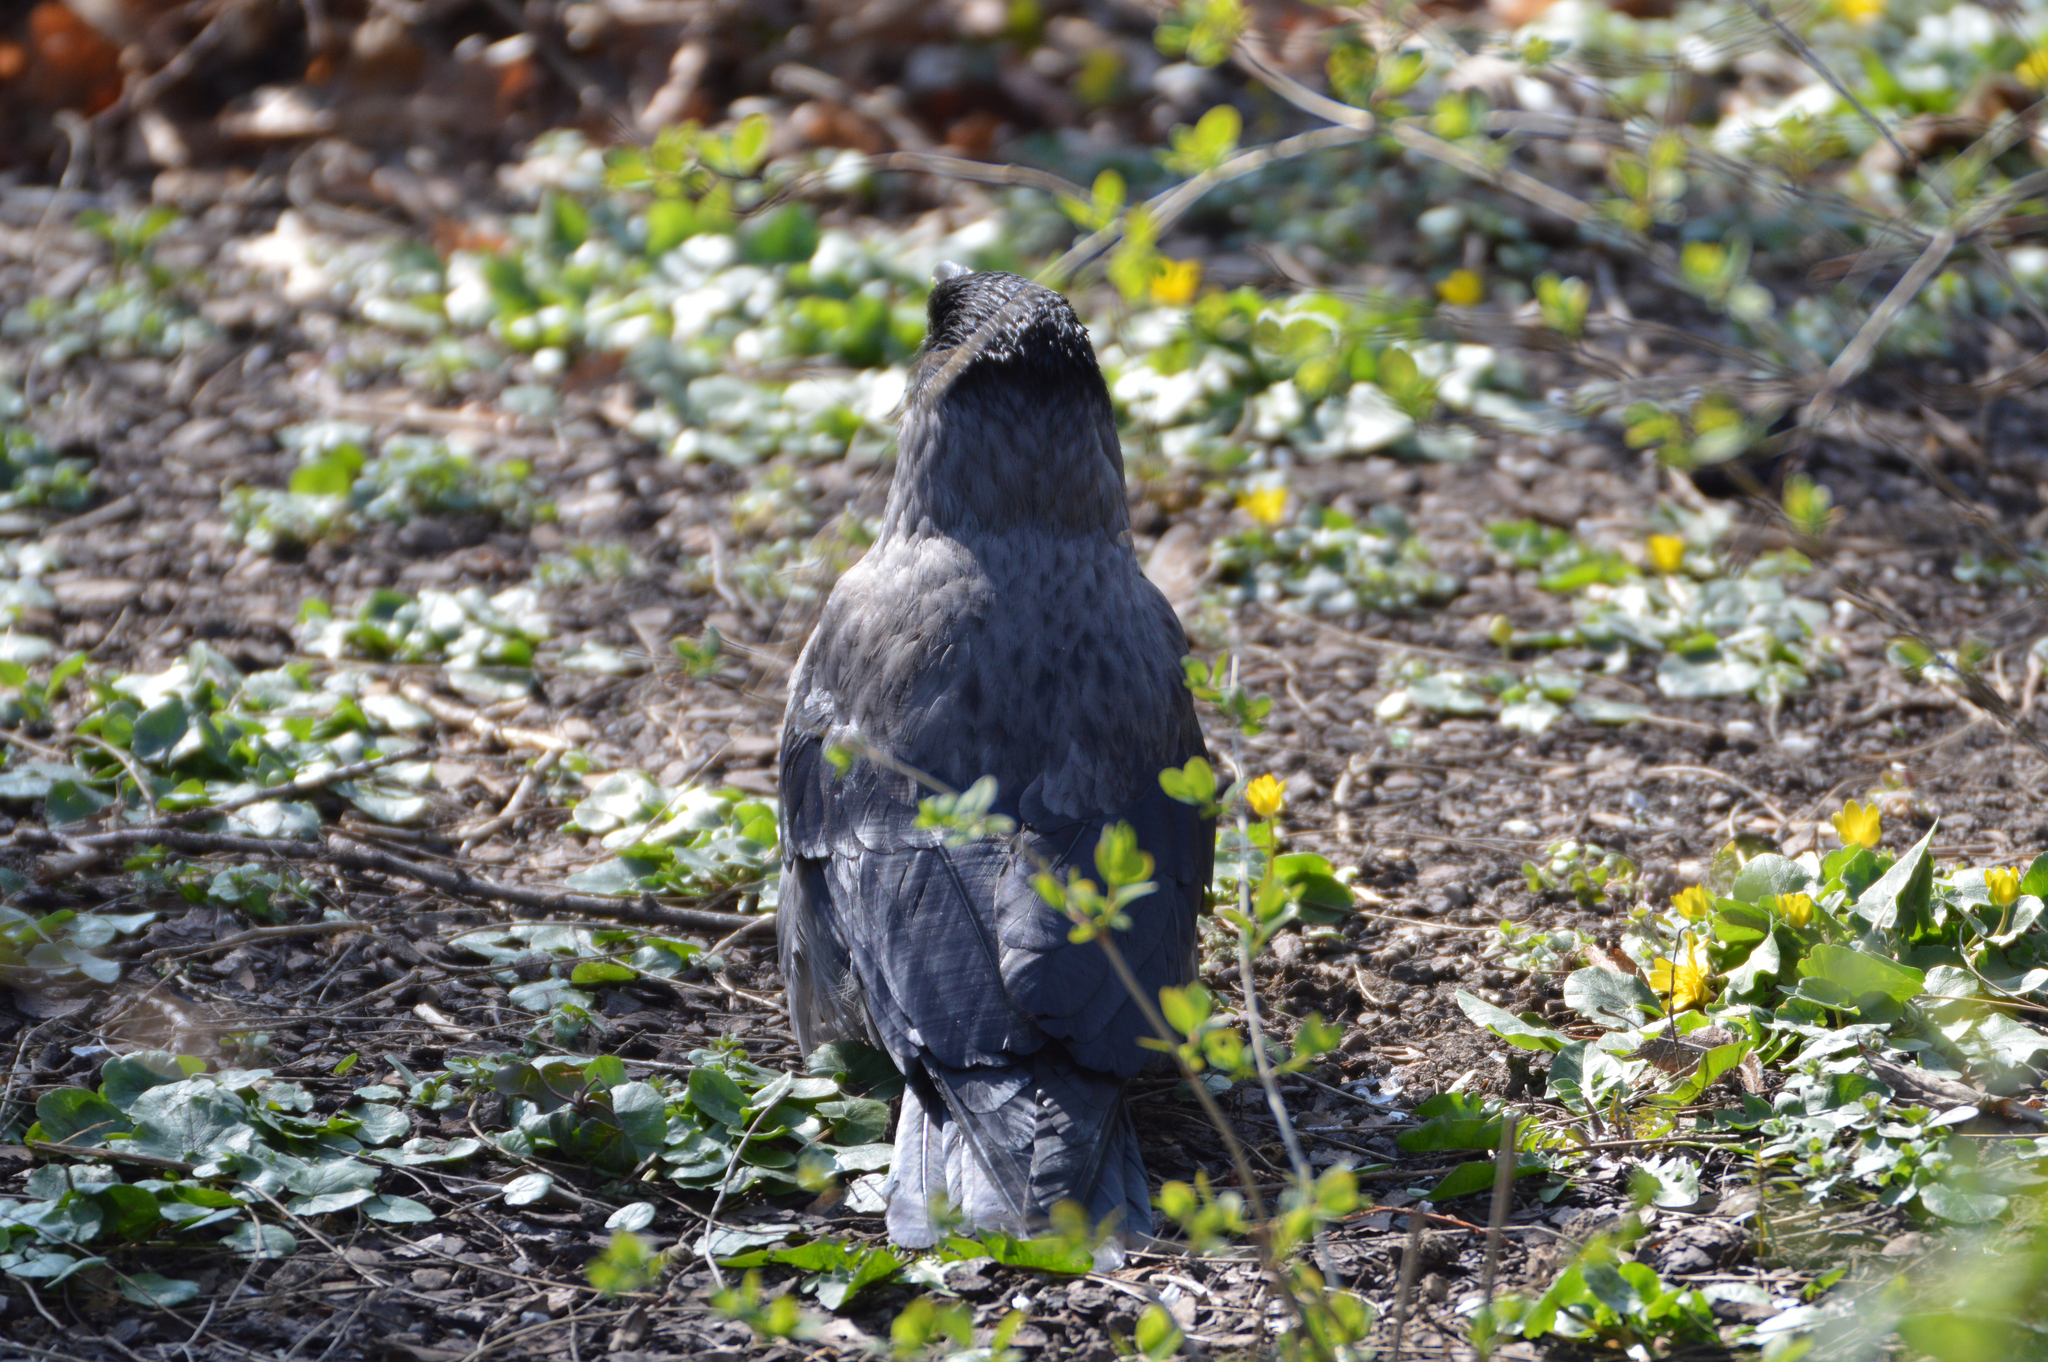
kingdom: Animalia
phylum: Chordata
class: Aves
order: Passeriformes
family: Corvidae
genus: Corvus
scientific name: Corvus
